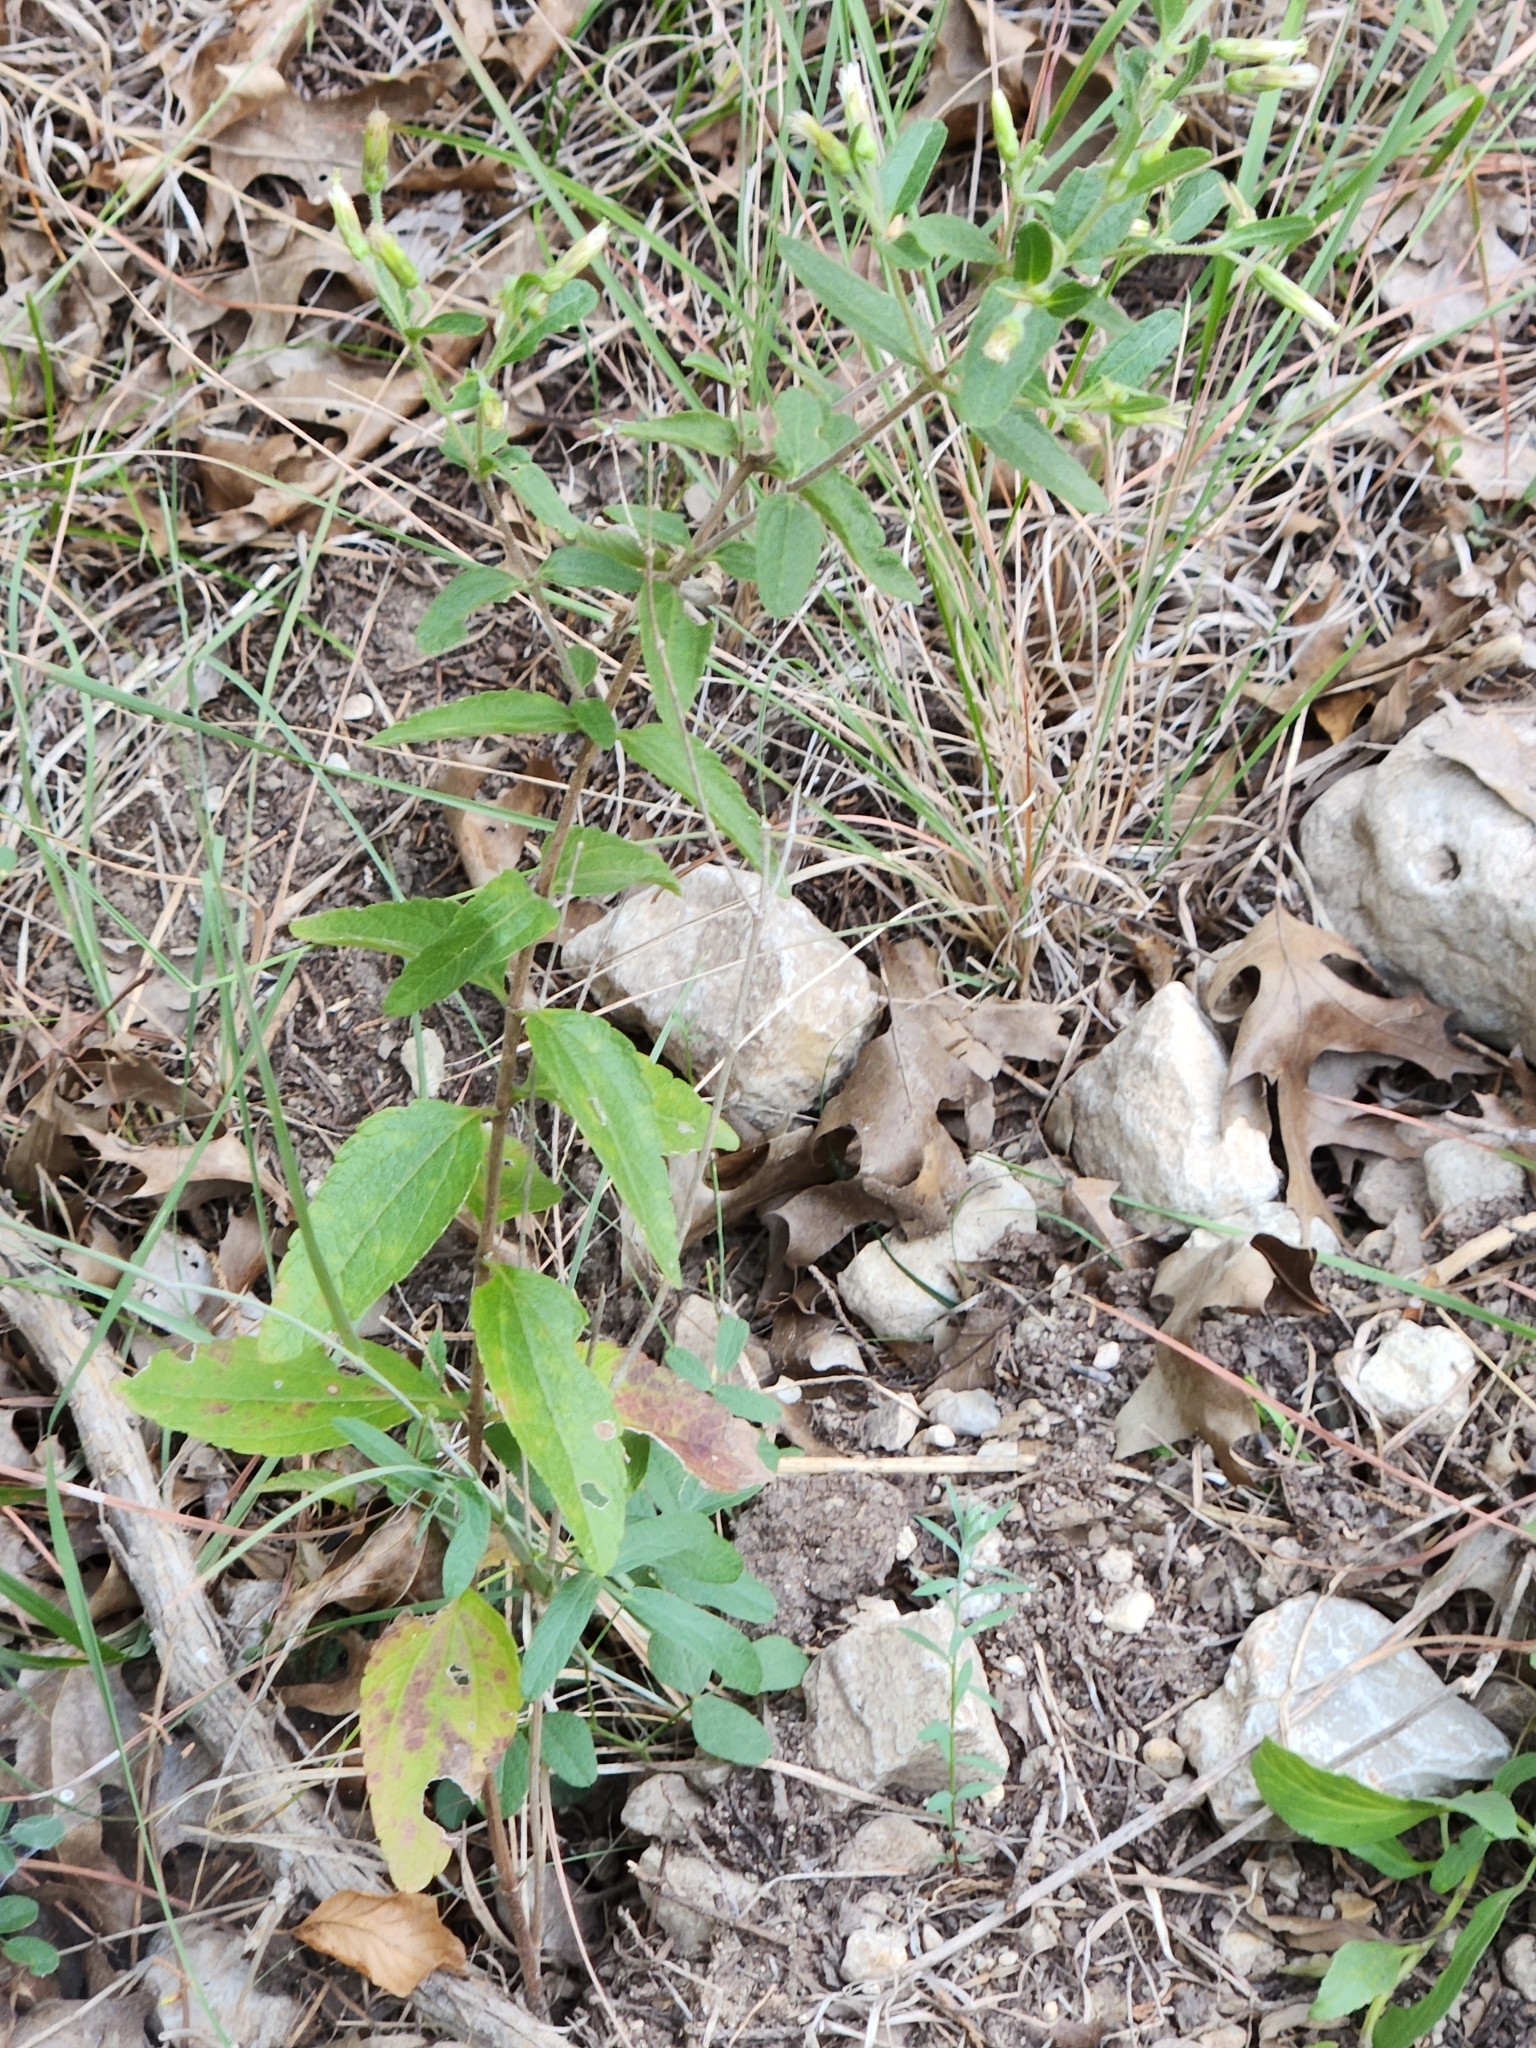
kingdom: Plantae
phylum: Tracheophyta
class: Magnoliopsida
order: Asterales
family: Asteraceae
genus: Brickellia
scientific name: Brickellia cylindracea
